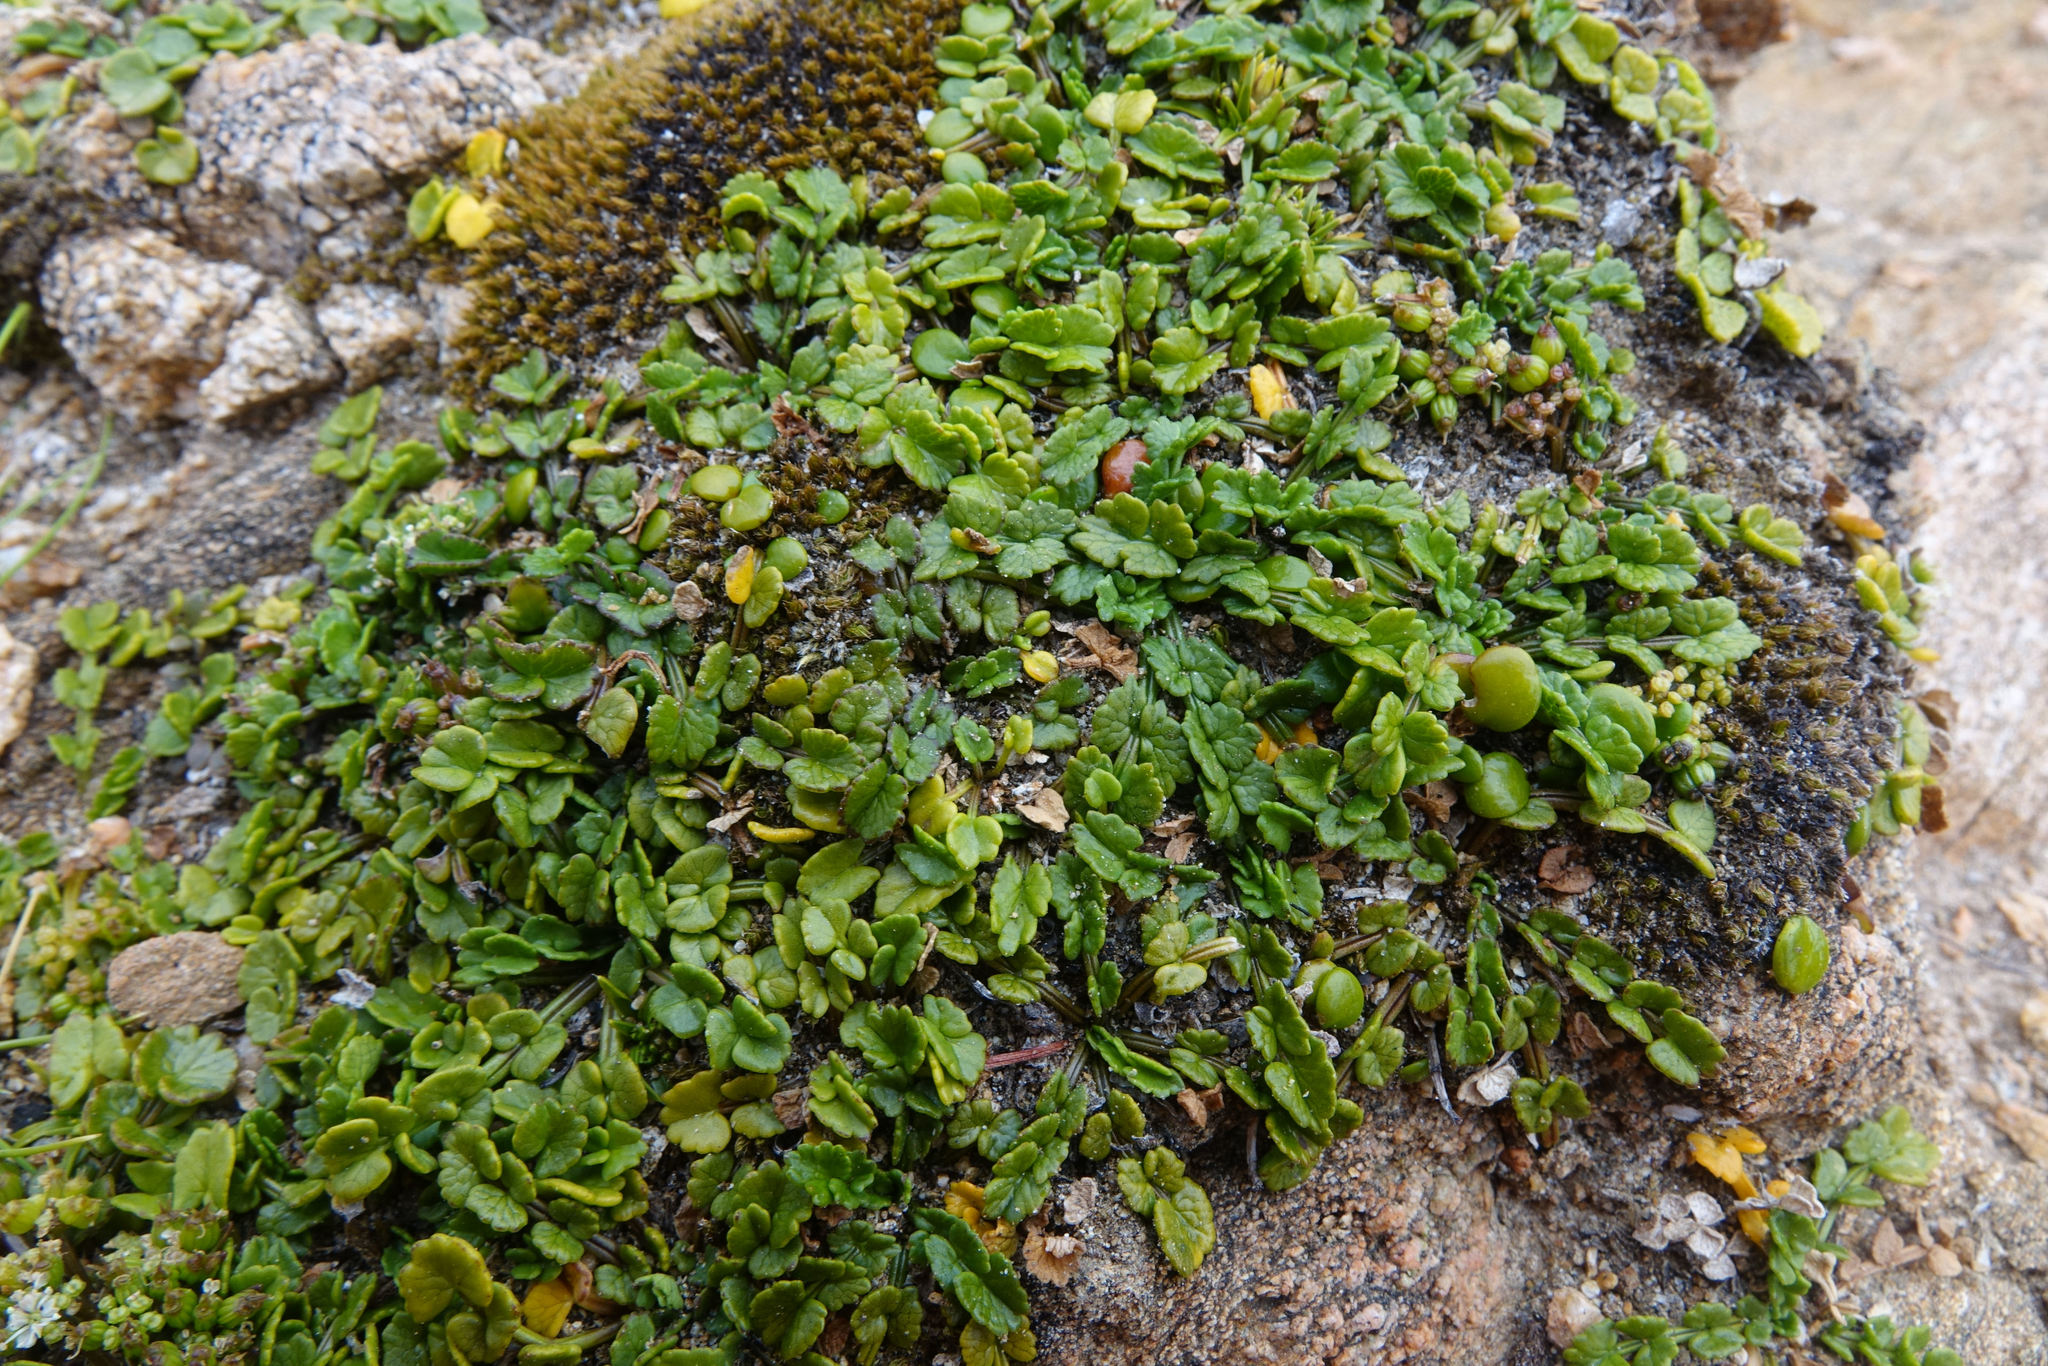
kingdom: Plantae
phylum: Tracheophyta
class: Magnoliopsida
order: Apiales
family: Apiaceae
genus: Gingidia
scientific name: Gingidia flabellata
